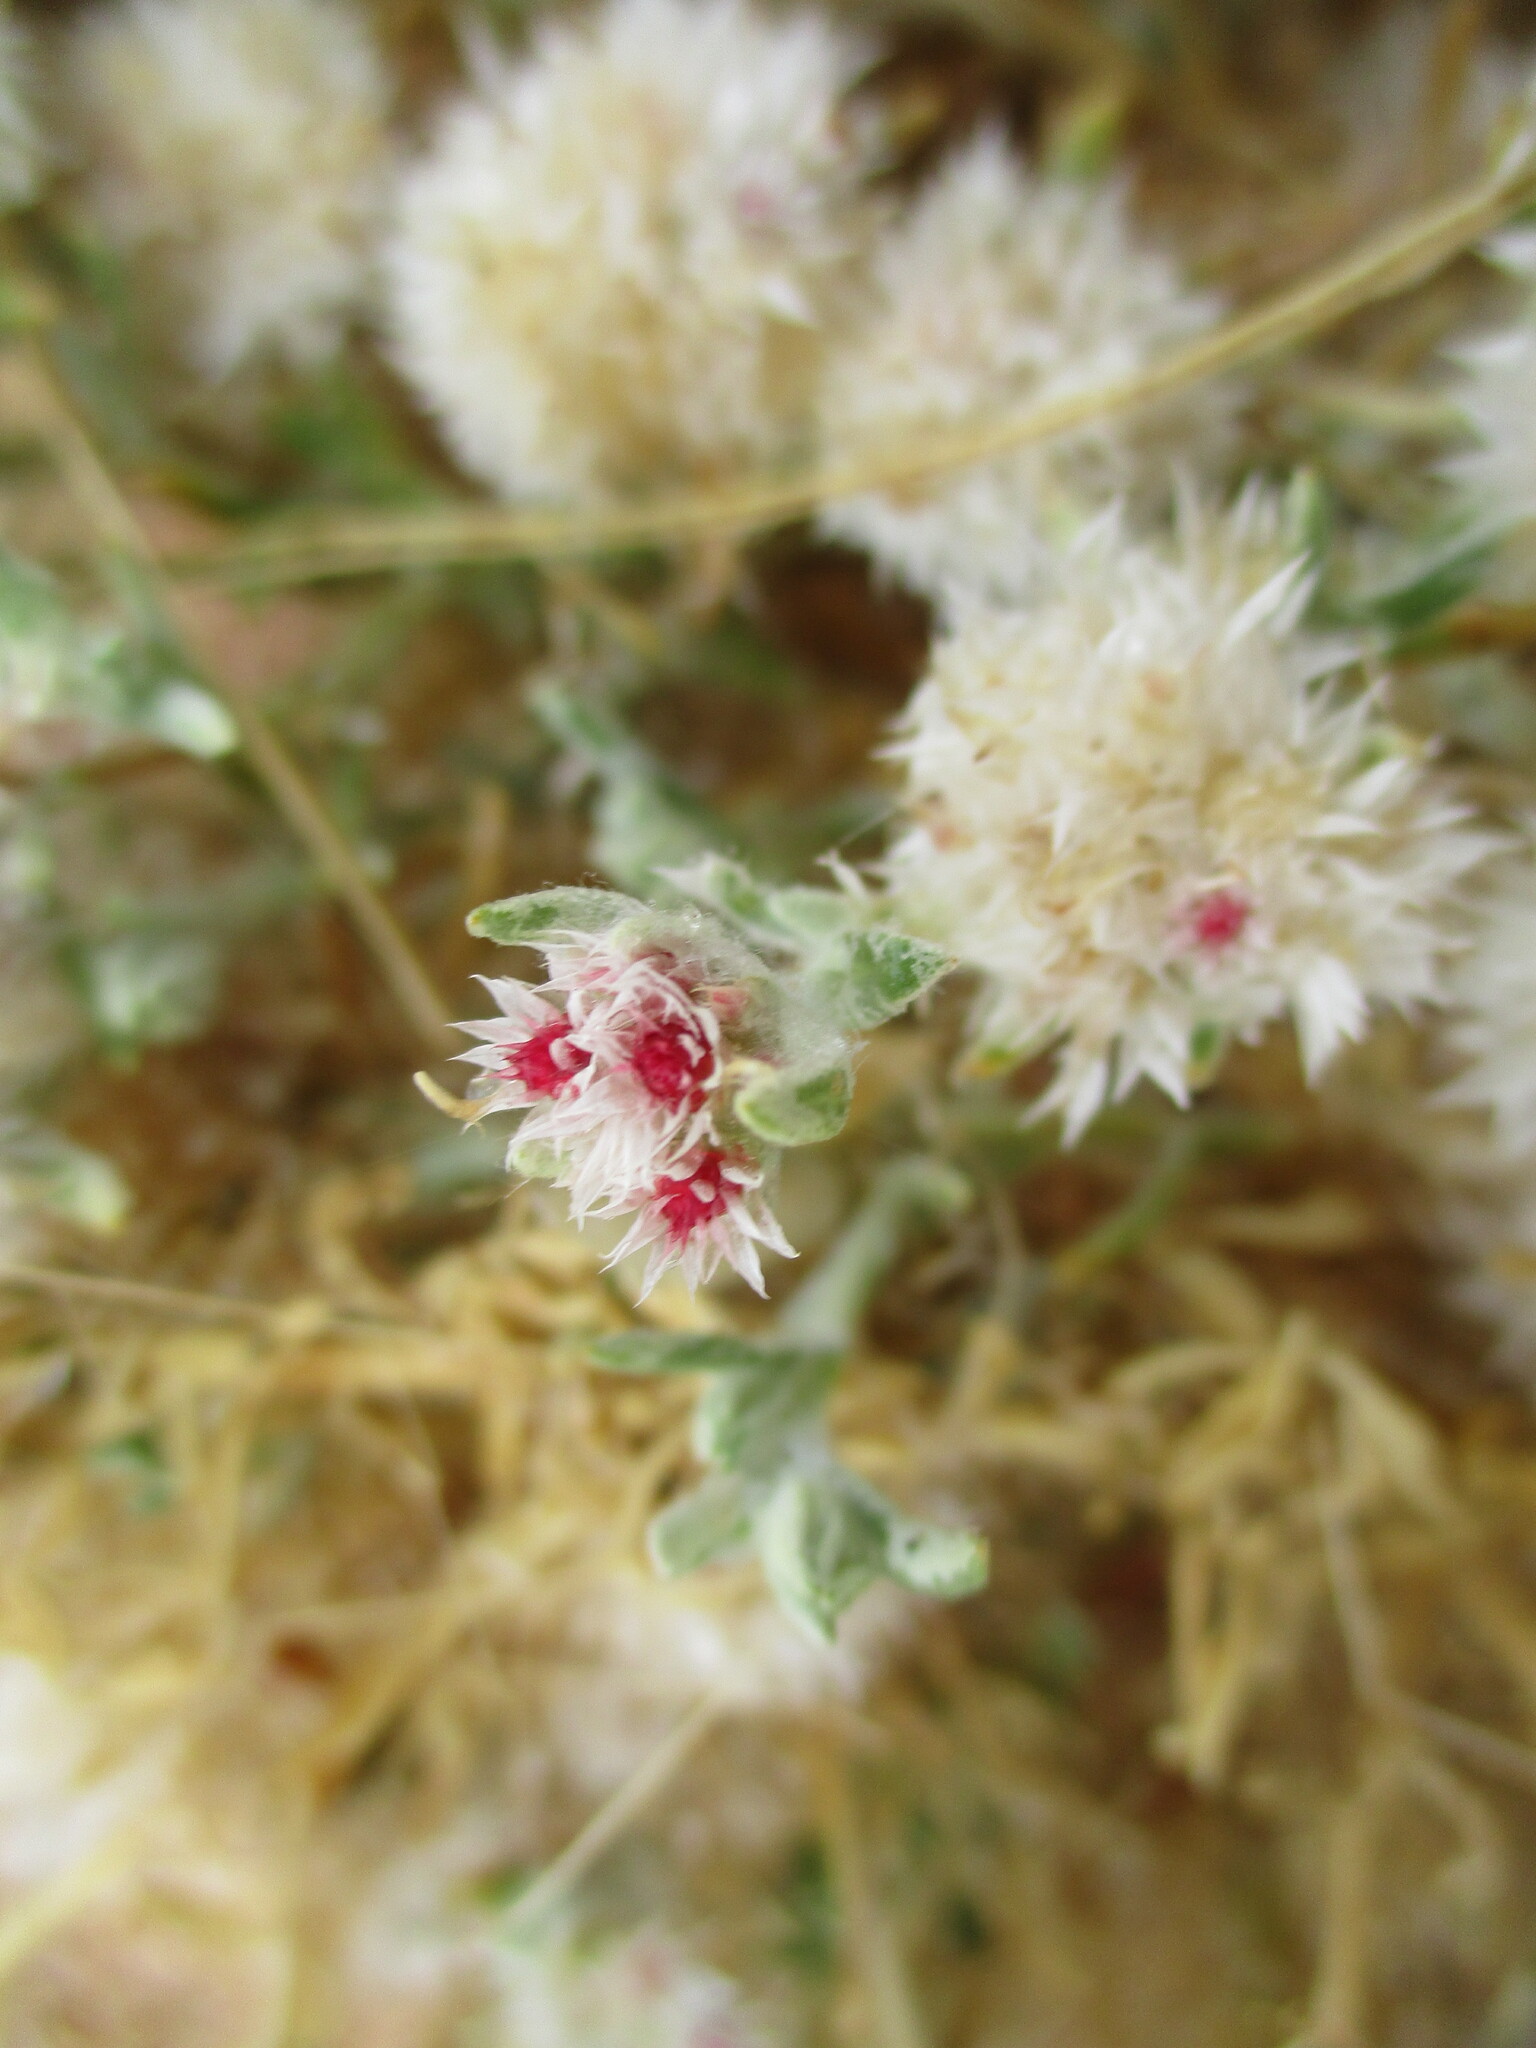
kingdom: Plantae
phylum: Tracheophyta
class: Magnoliopsida
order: Asterales
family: Asteraceae
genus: Helichrysum
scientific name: Helichrysum candolleanum
